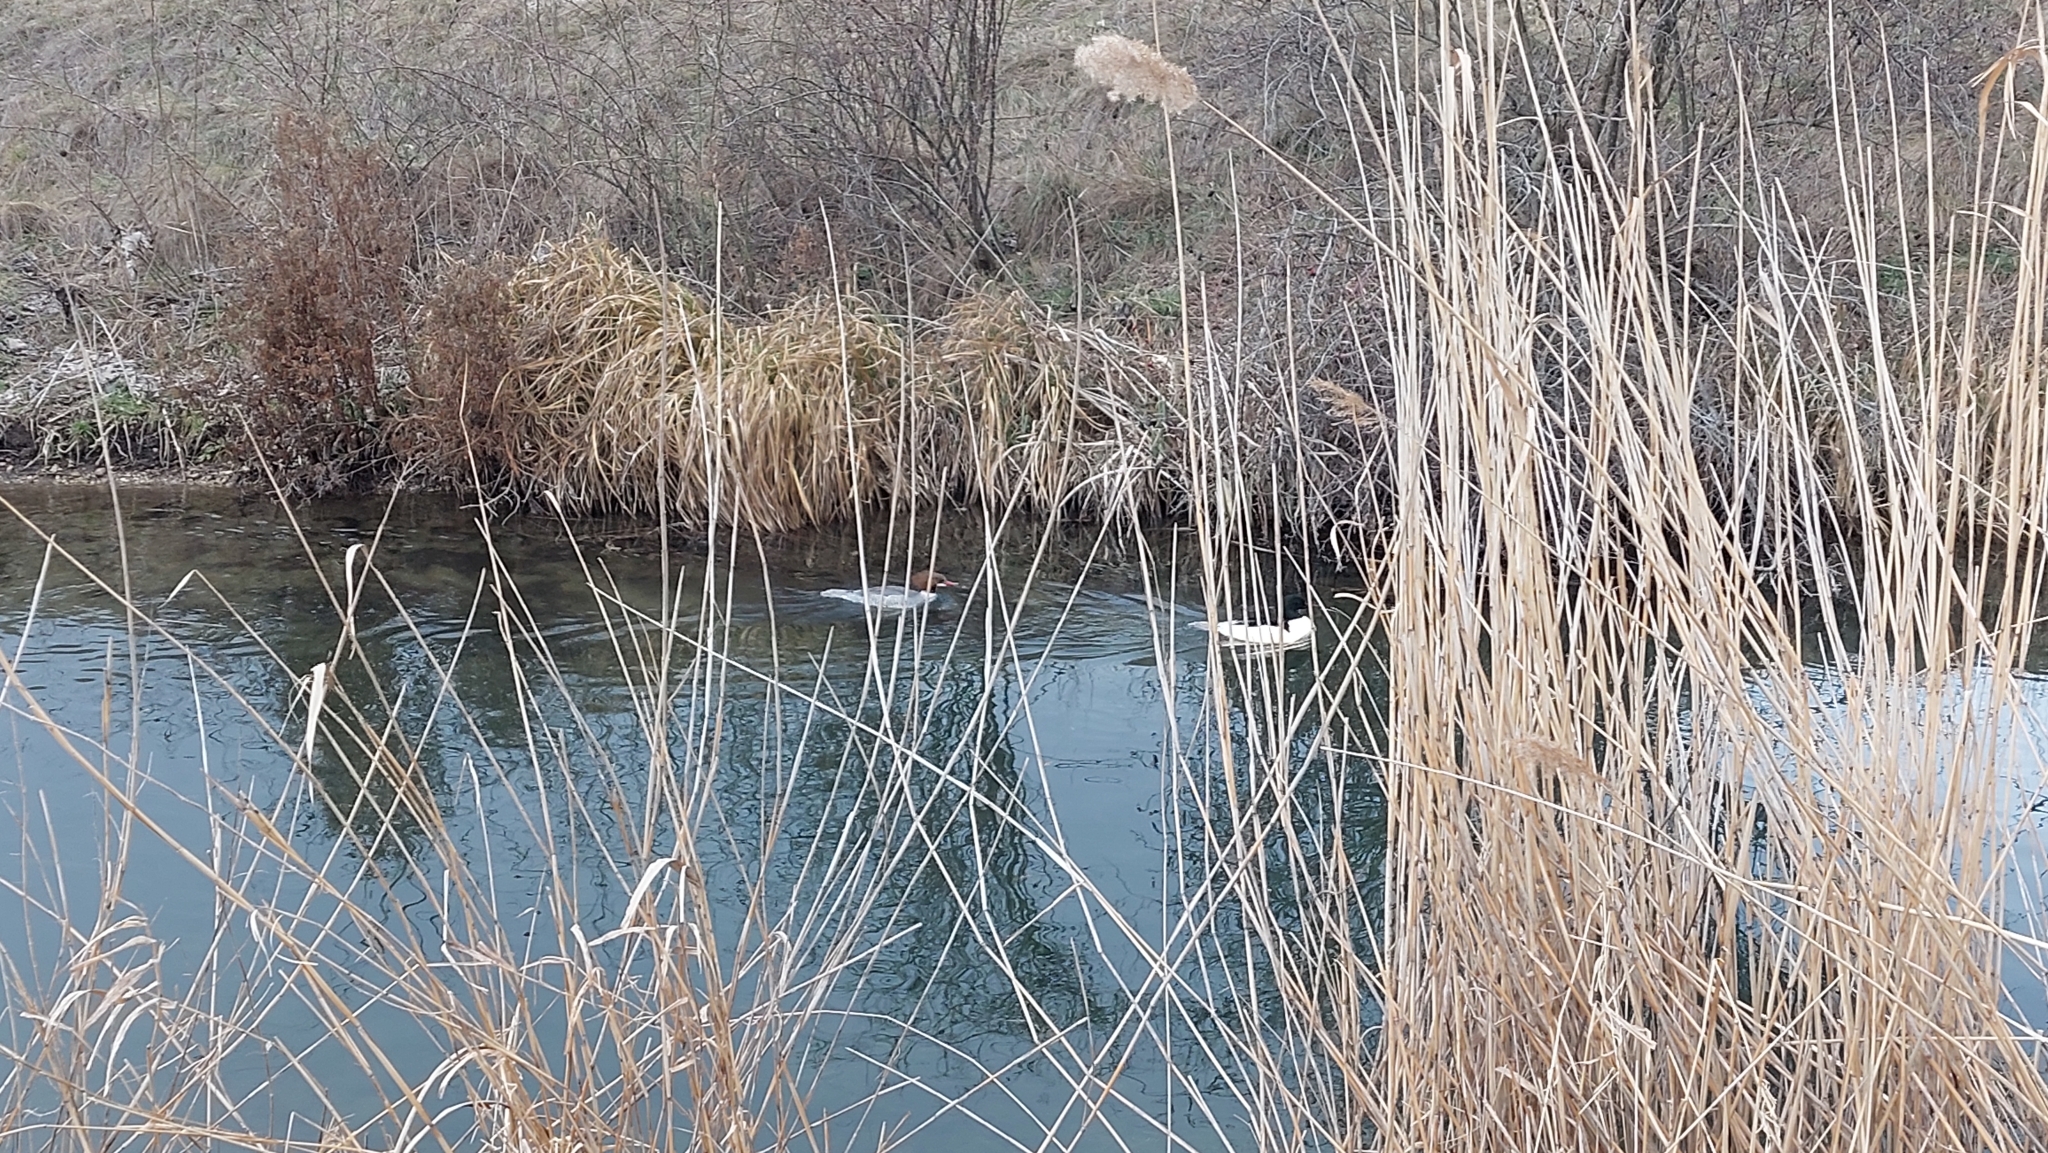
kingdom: Animalia
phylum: Chordata
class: Aves
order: Anseriformes
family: Anatidae
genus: Mergus
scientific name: Mergus merganser
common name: Common merganser
